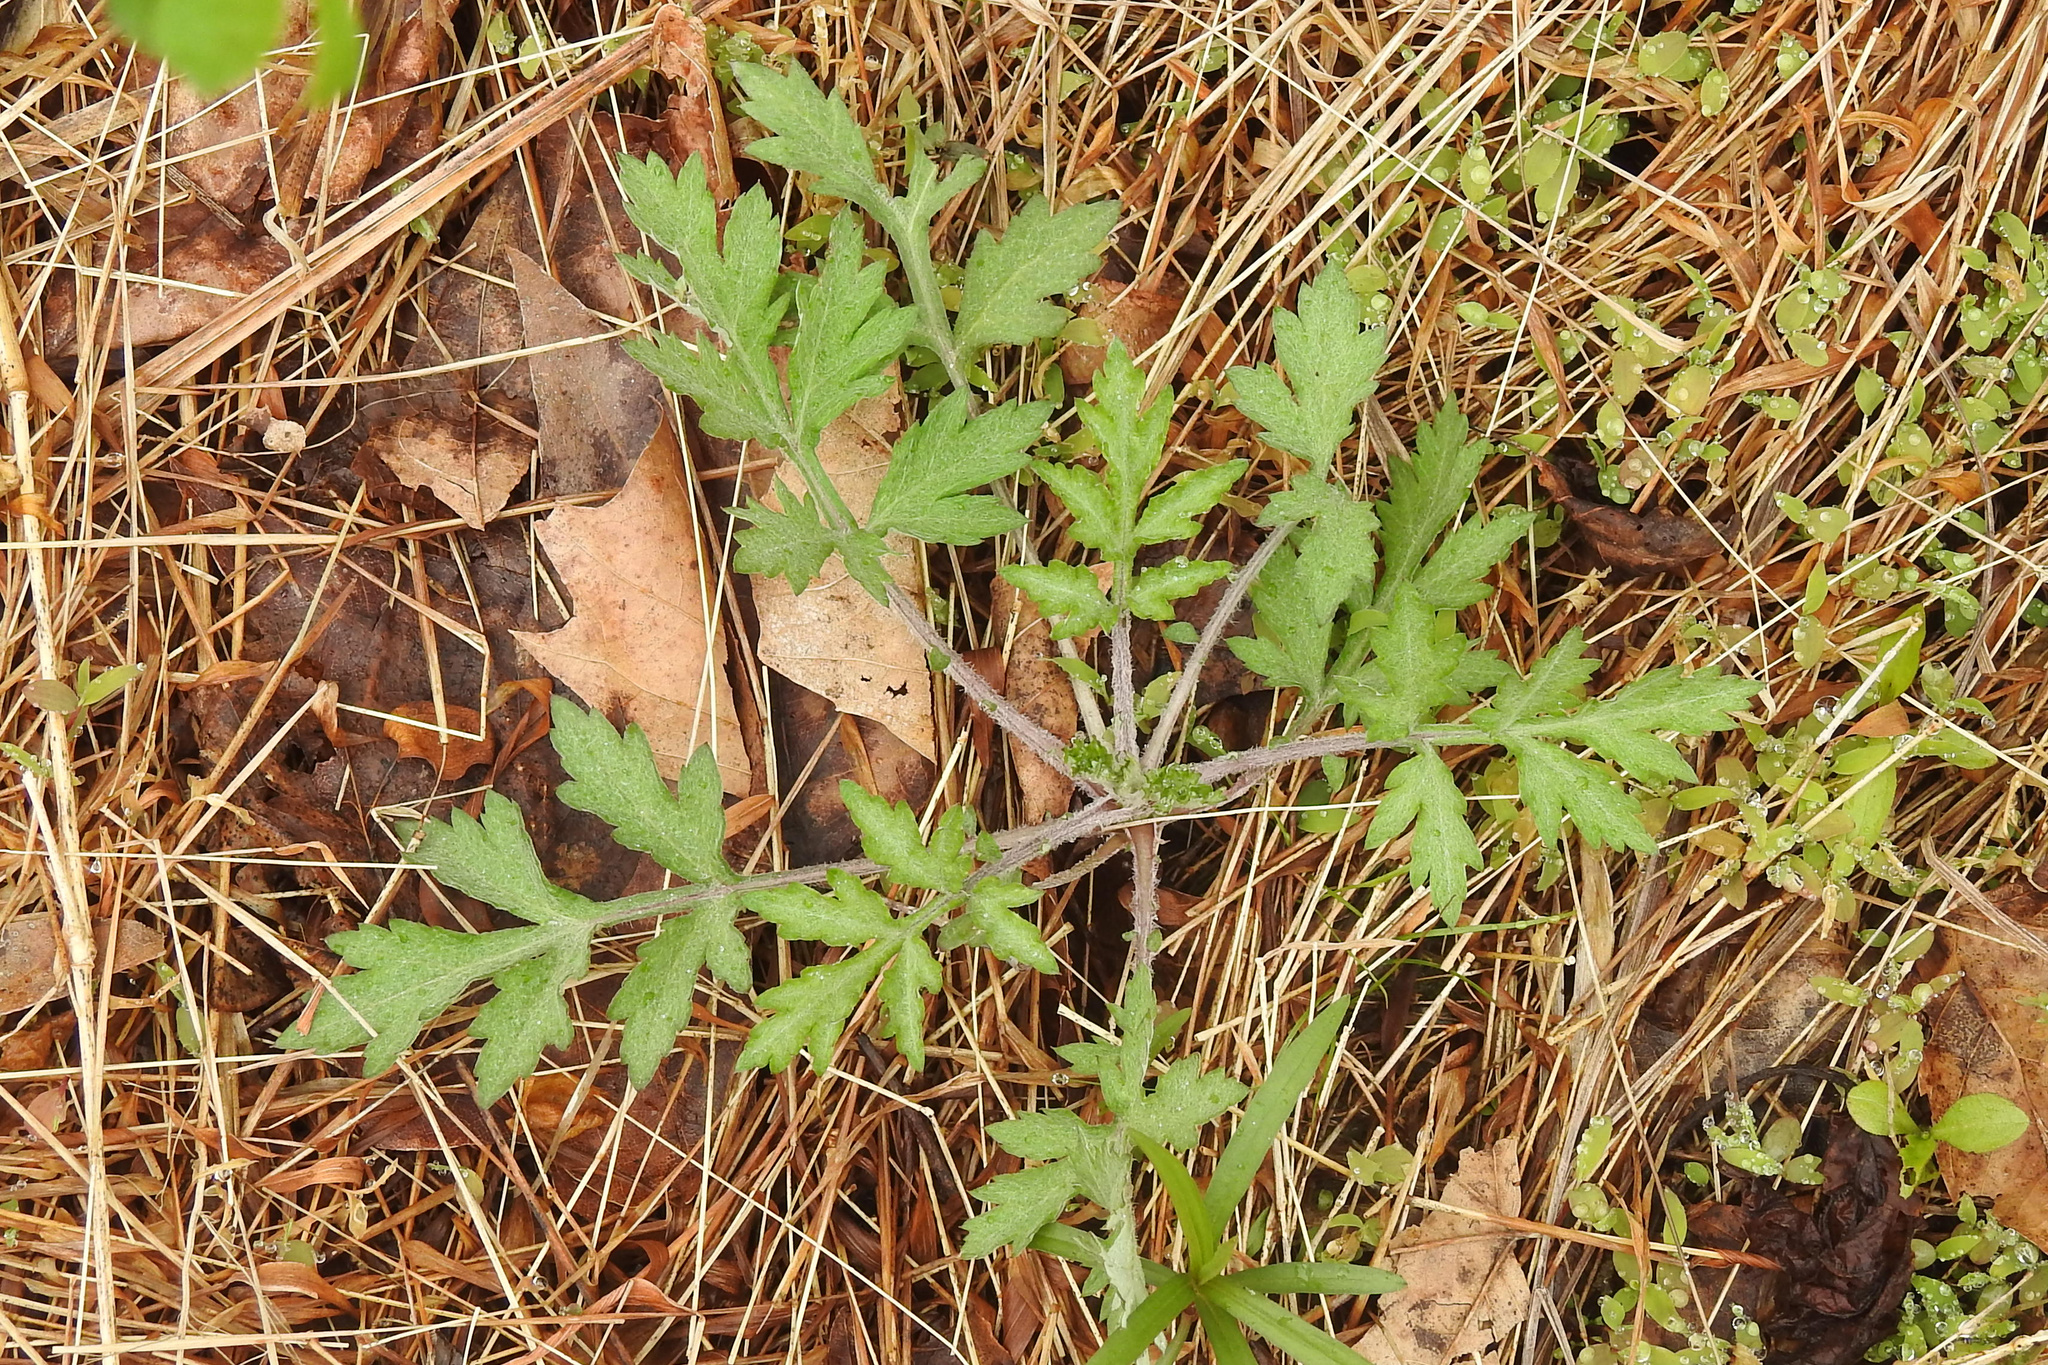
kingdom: Plantae
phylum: Tracheophyta
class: Magnoliopsida
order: Asterales
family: Asteraceae
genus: Artemisia
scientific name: Artemisia vulgaris
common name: Mugwort
